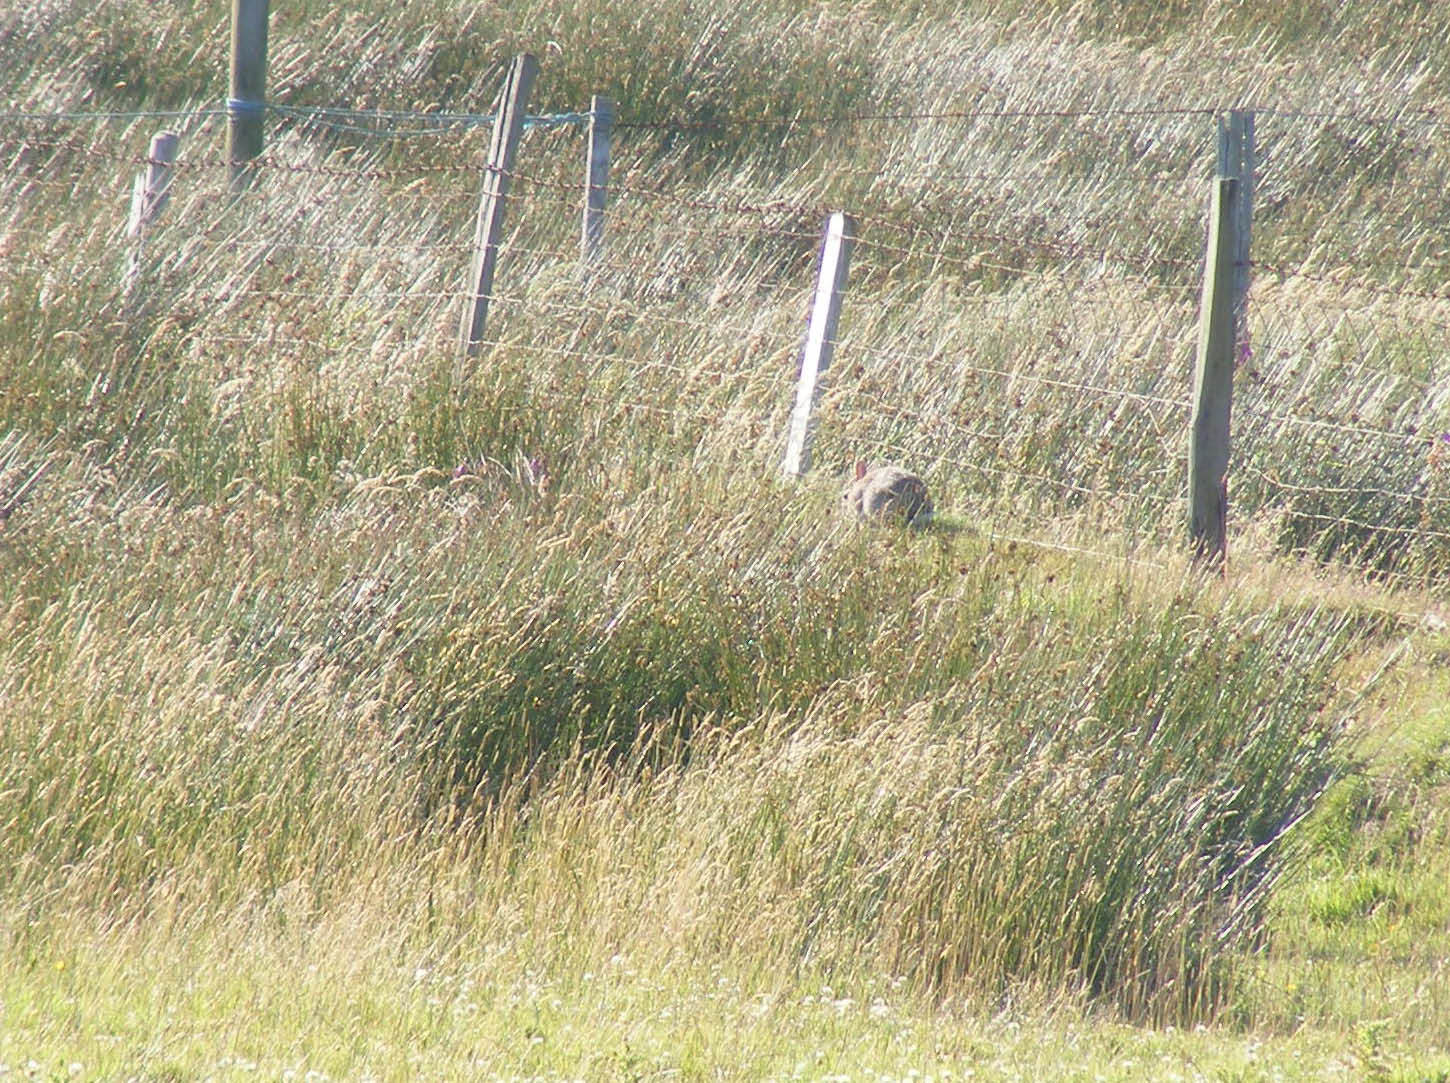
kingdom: Animalia
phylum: Chordata
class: Mammalia
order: Lagomorpha
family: Leporidae
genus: Oryctolagus
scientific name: Oryctolagus cuniculus
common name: European rabbit
